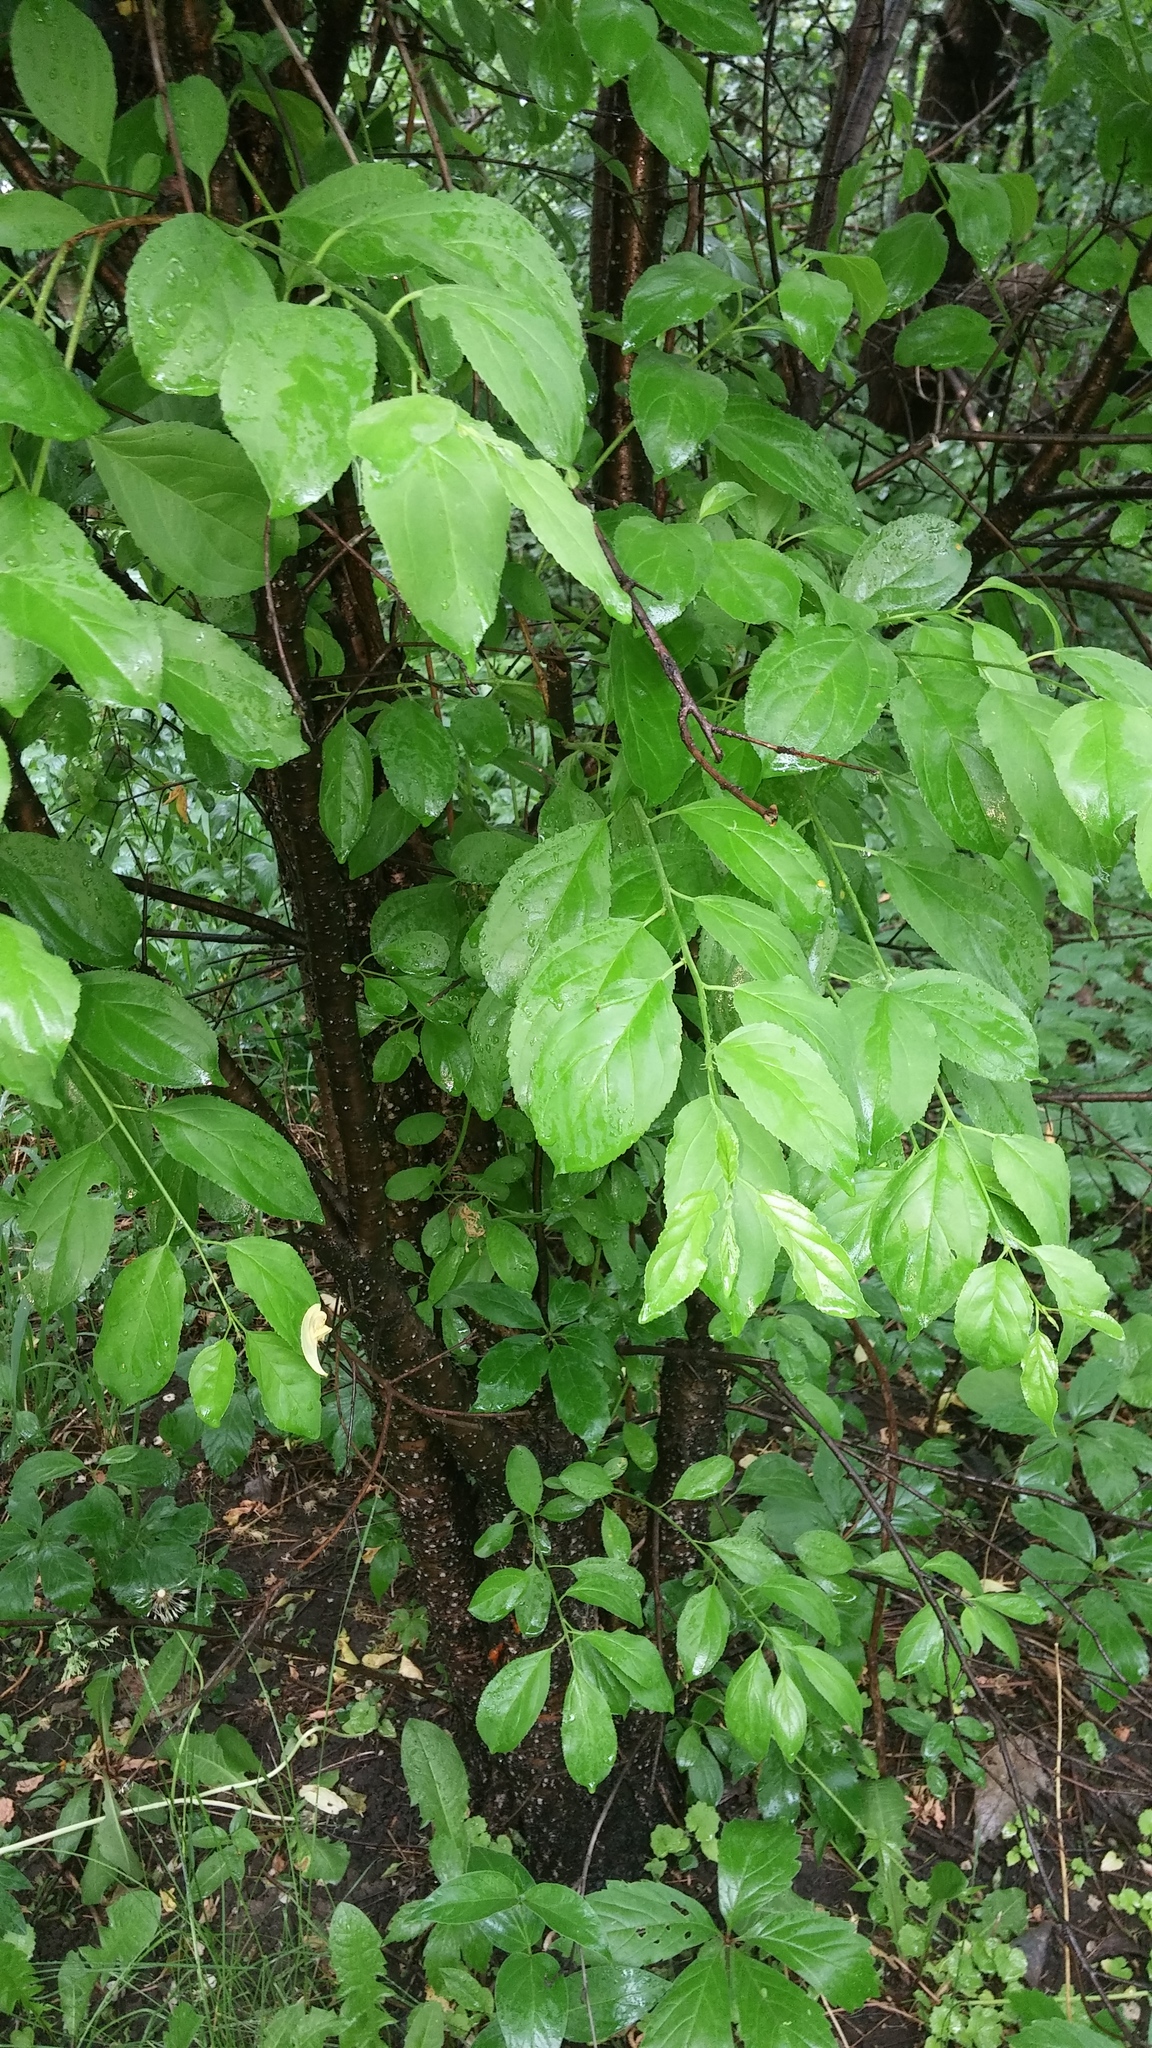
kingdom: Plantae
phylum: Tracheophyta
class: Magnoliopsida
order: Rosales
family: Rhamnaceae
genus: Rhamnus
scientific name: Rhamnus cathartica
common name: Common buckthorn
